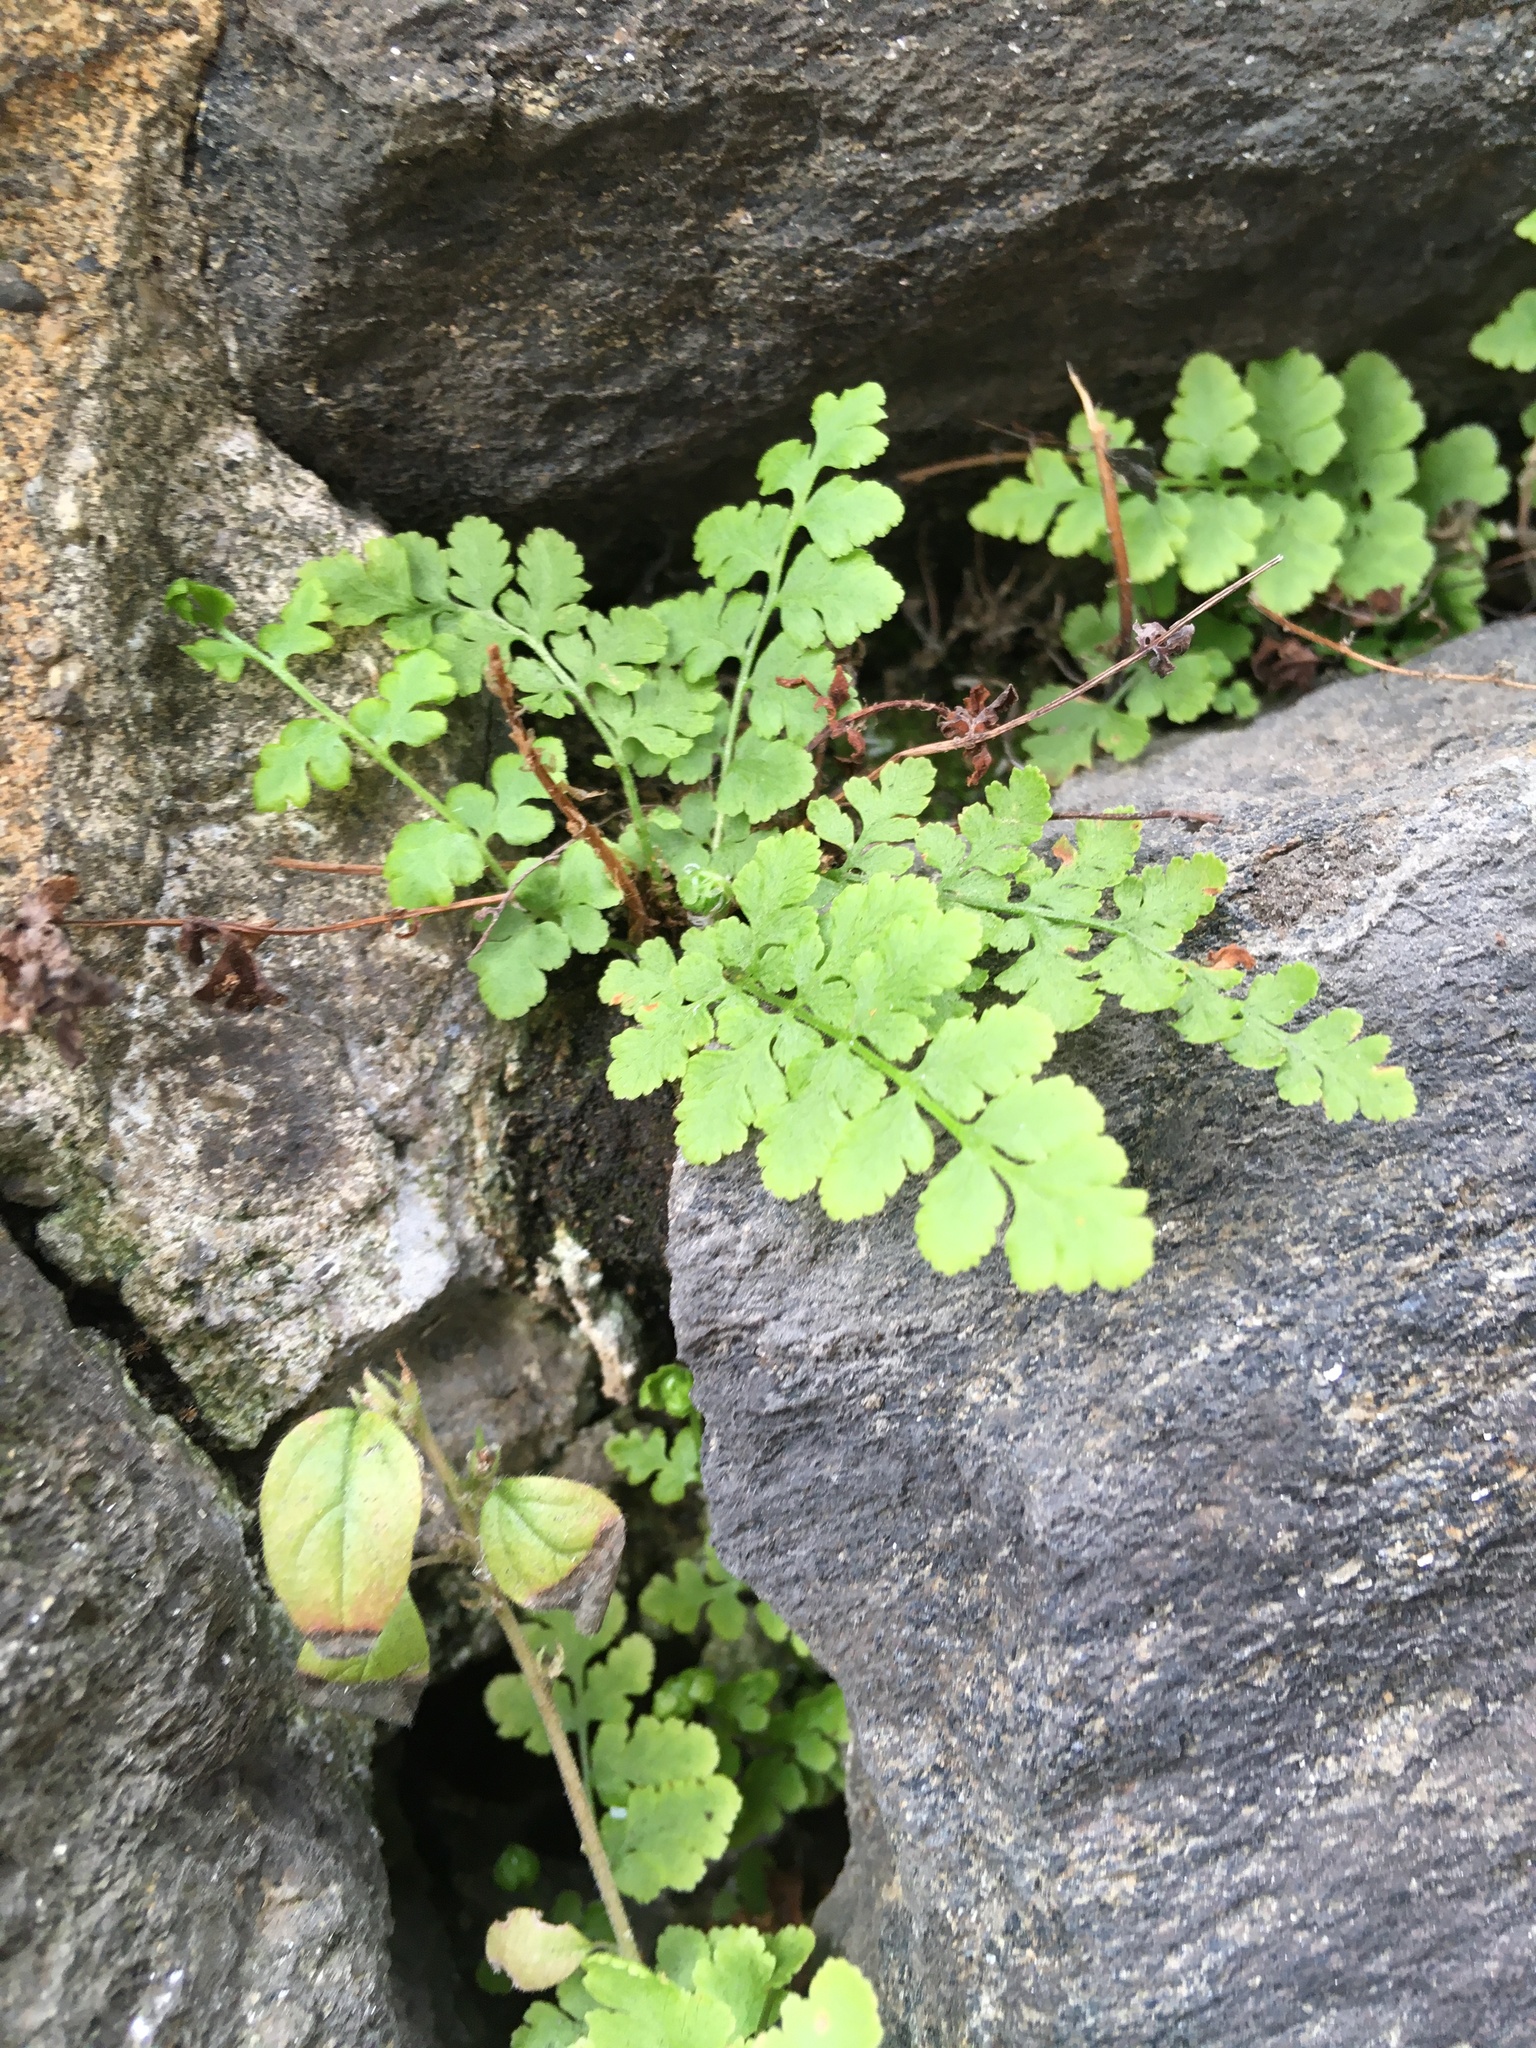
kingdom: Plantae
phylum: Tracheophyta
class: Polypodiopsida
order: Polypodiales
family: Woodsiaceae
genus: Physematium
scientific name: Physematium obtusum
